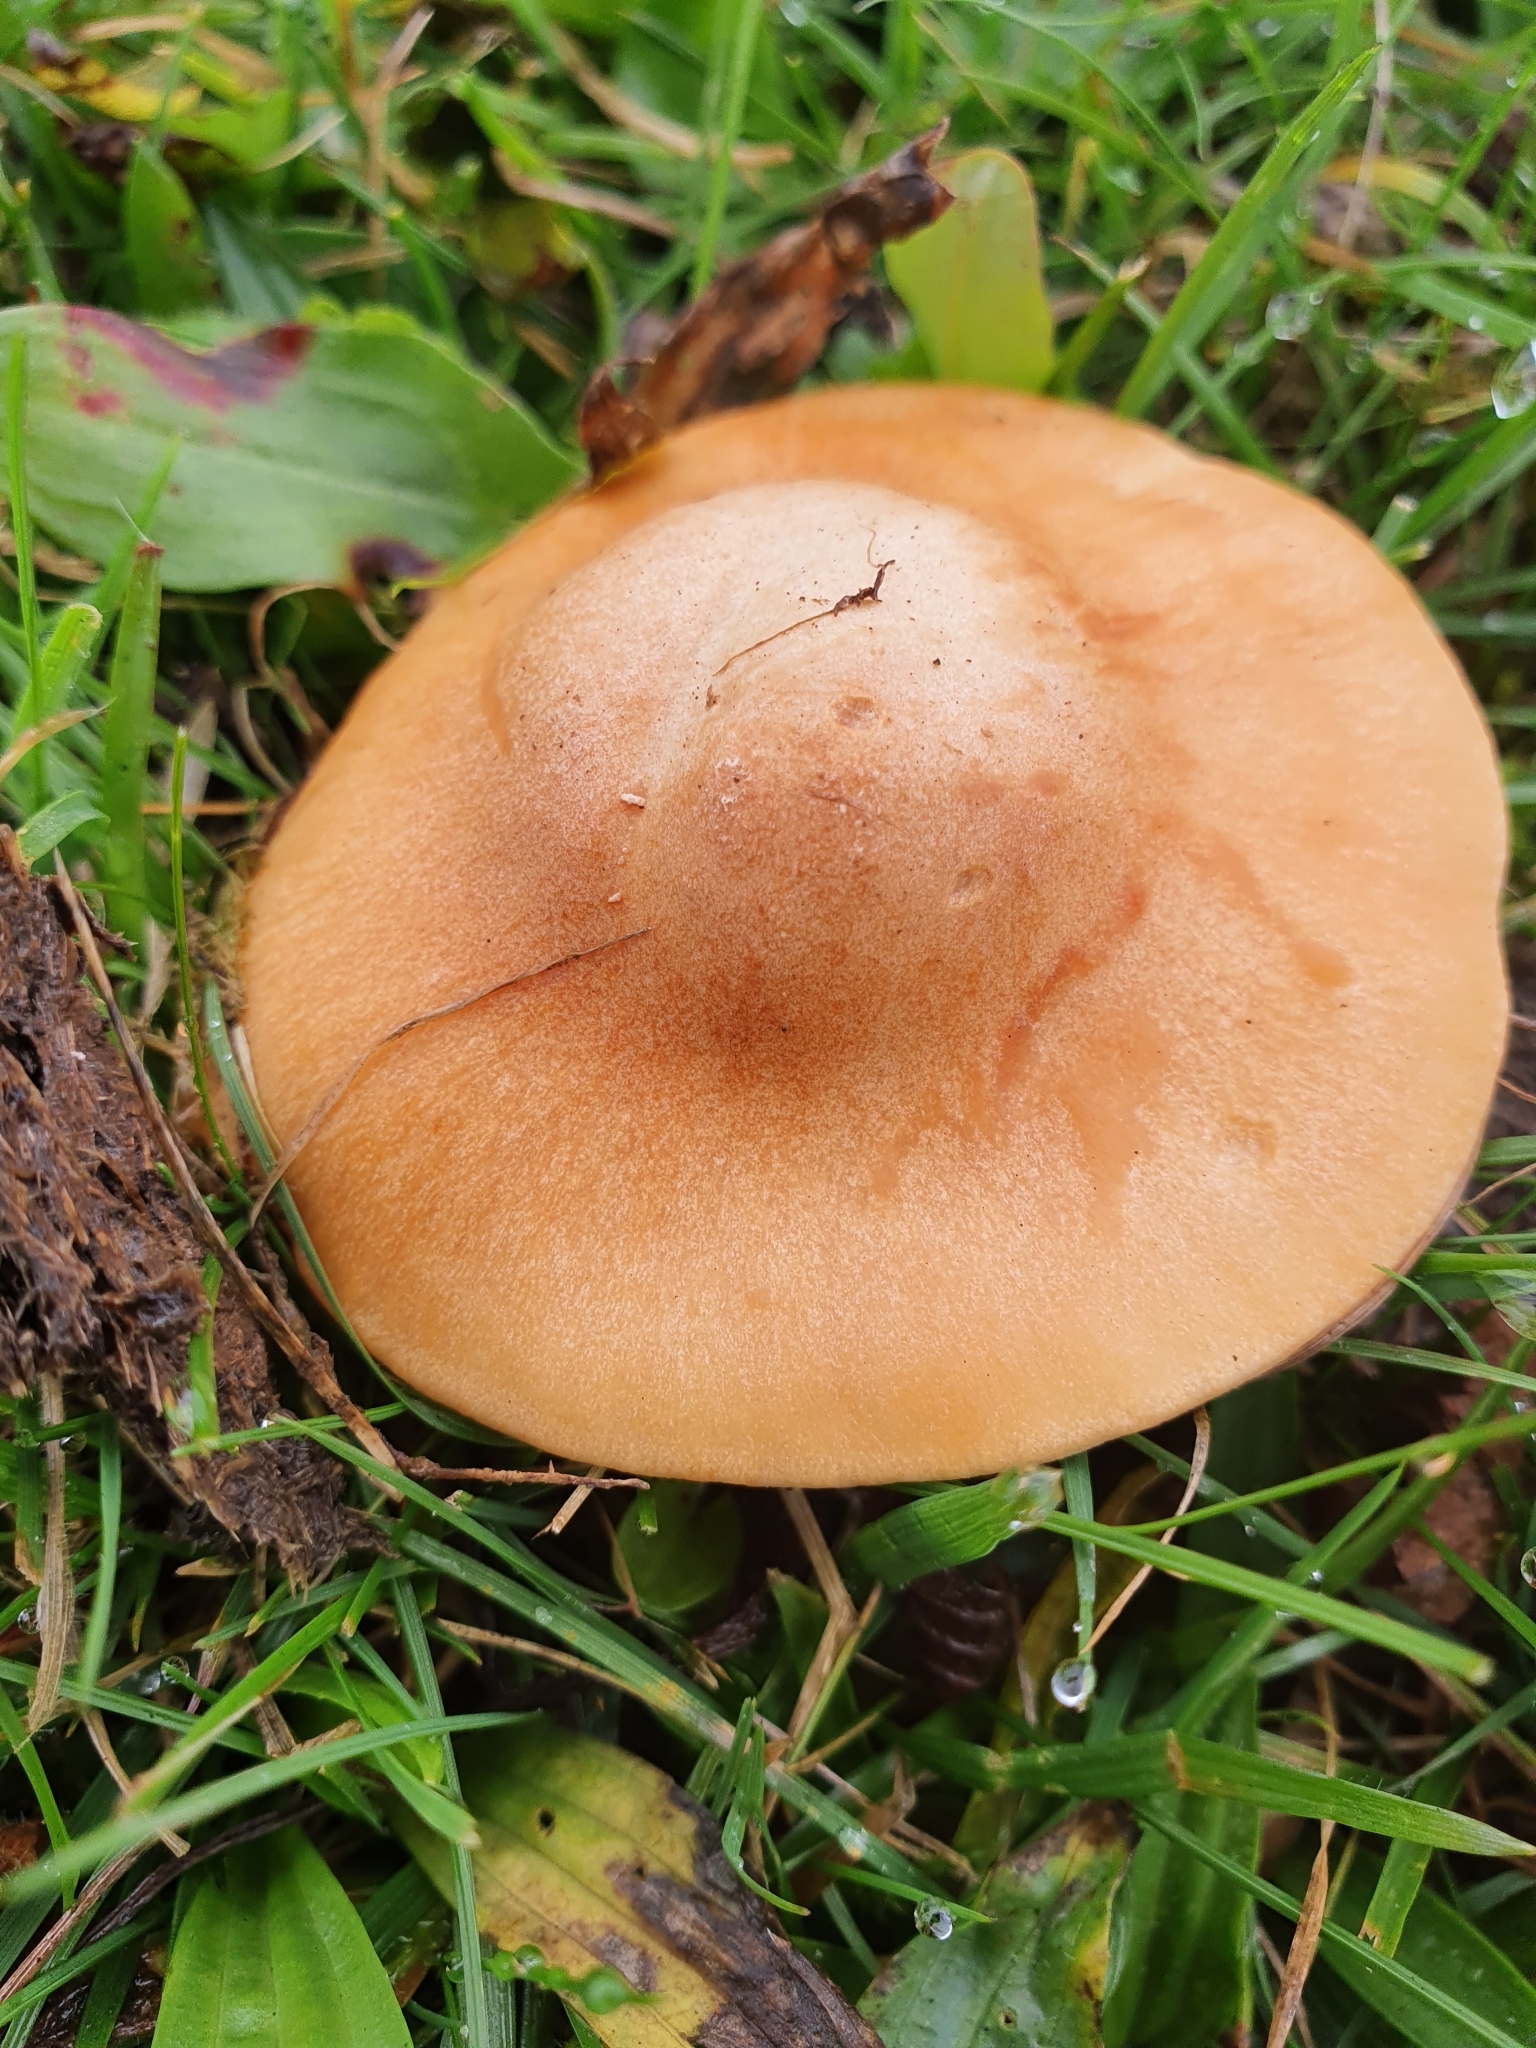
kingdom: Fungi
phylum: Basidiomycota
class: Agaricomycetes
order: Agaricales
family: Hygrophoraceae
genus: Cuphophyllus
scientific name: Cuphophyllus pratensis
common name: Meadow waxcap
